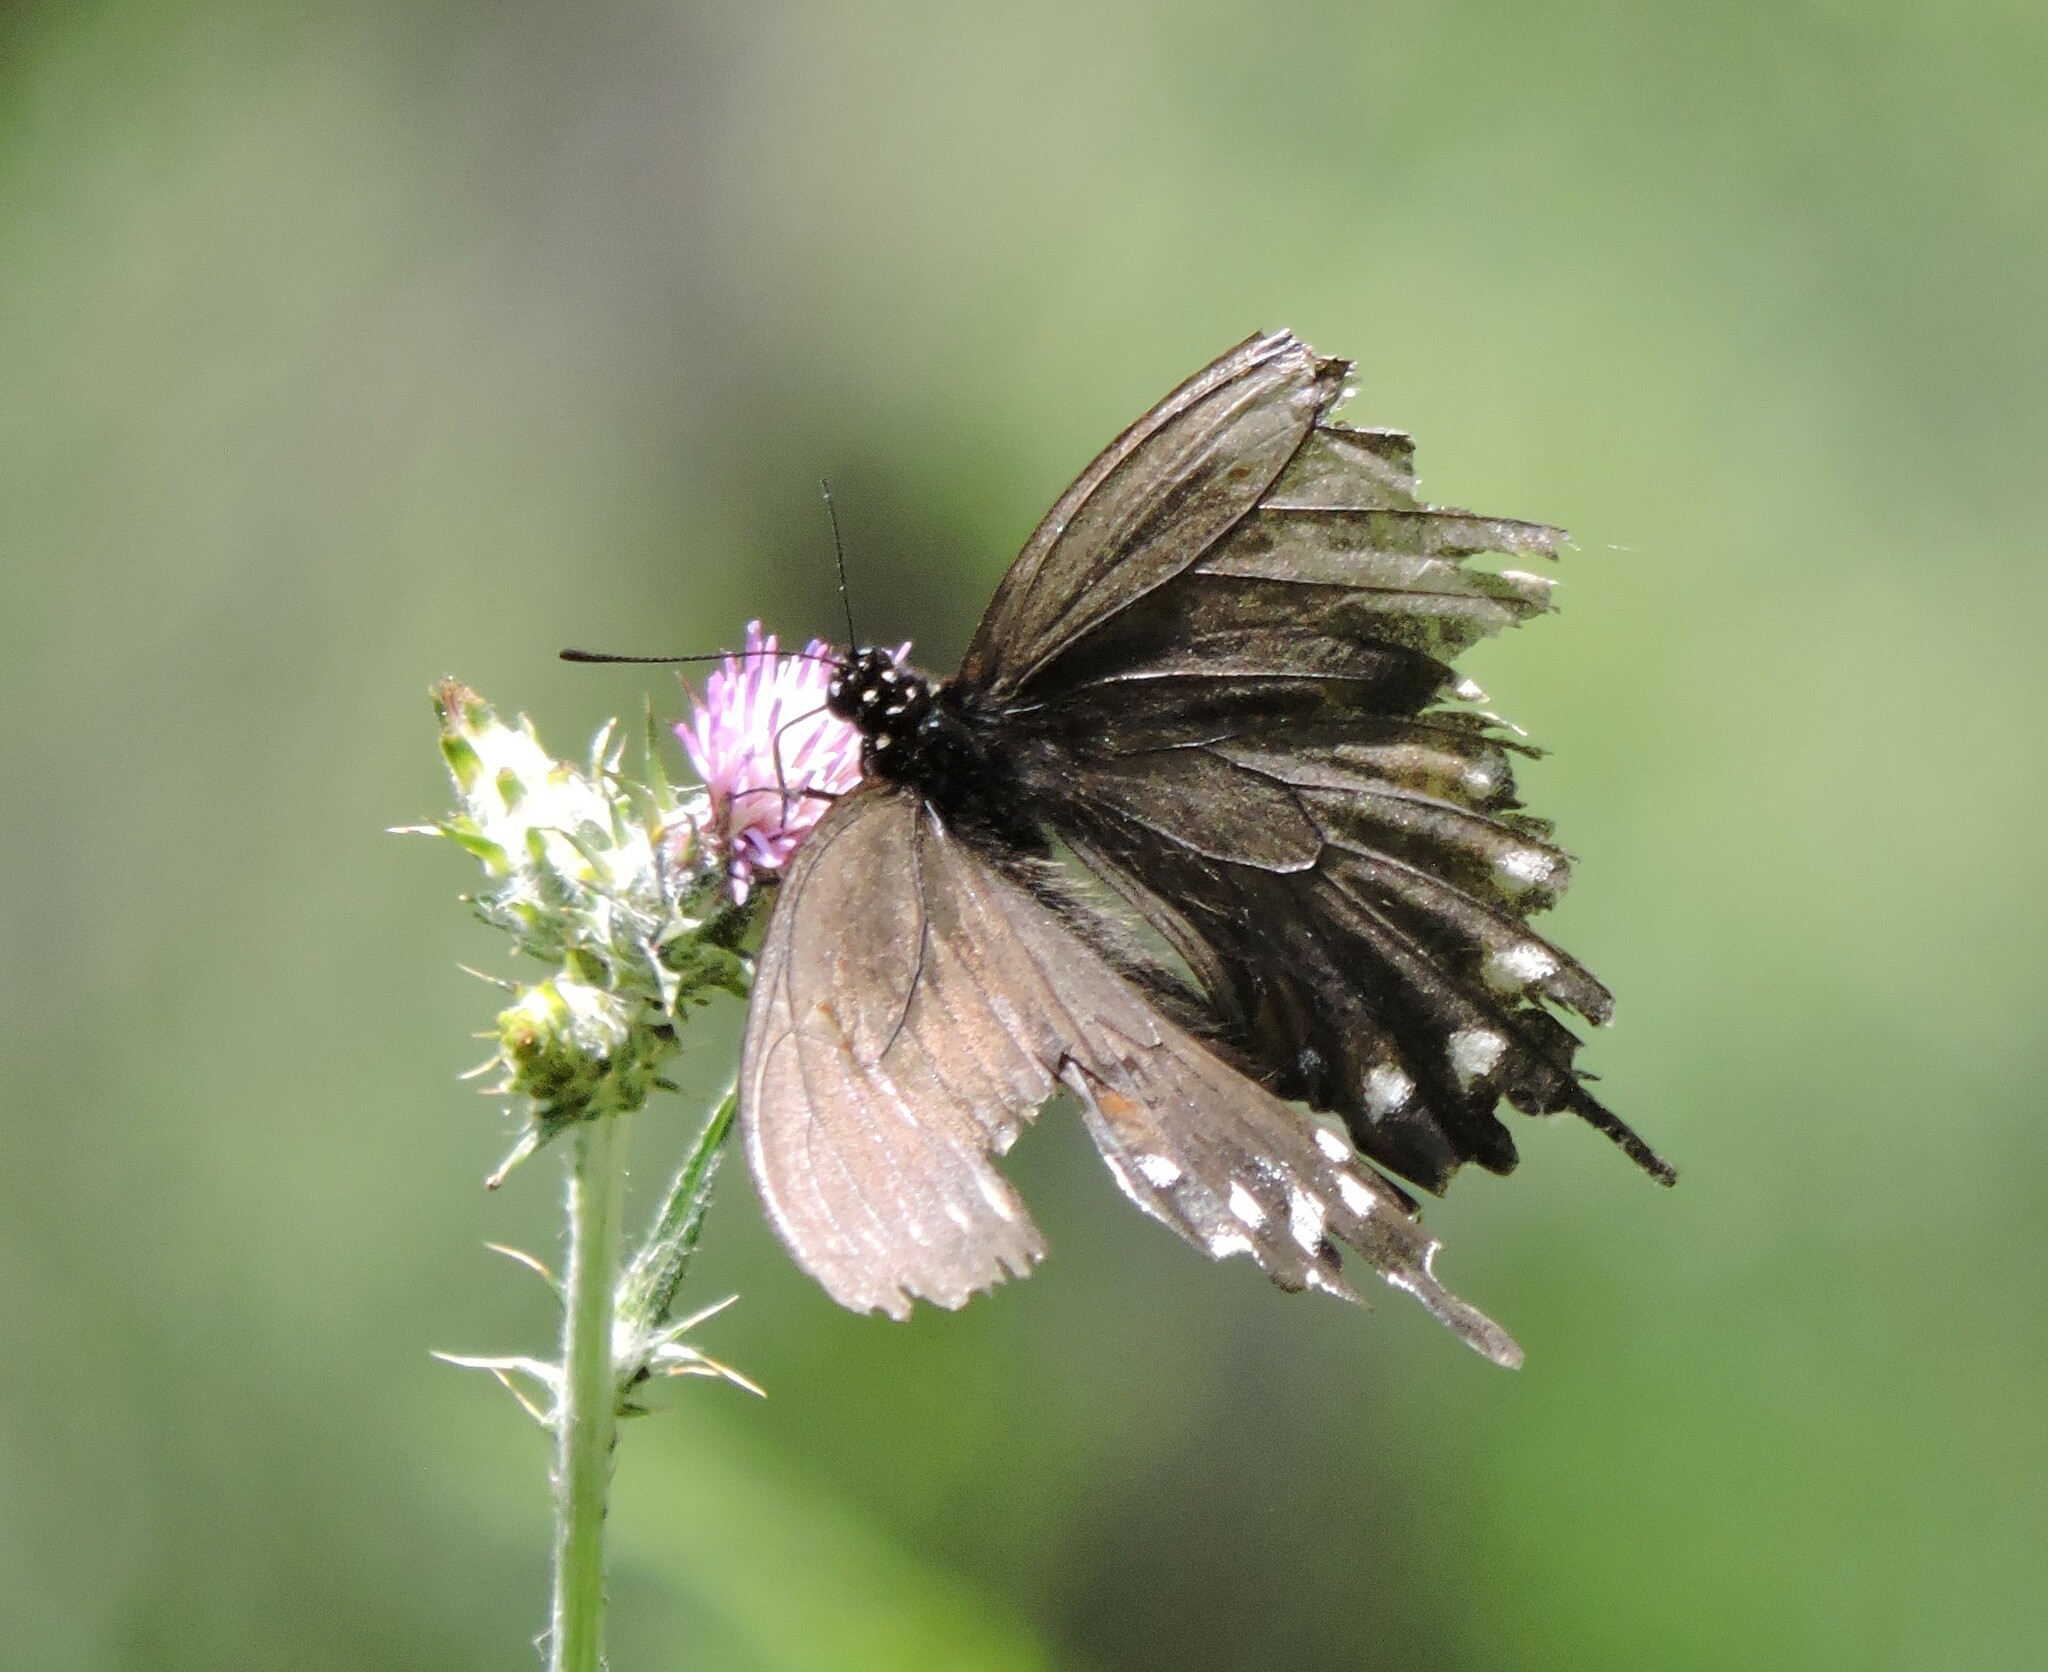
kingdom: Animalia
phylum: Arthropoda
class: Insecta
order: Lepidoptera
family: Papilionidae
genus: Battus
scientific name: Battus philenor
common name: Pipevine swallowtail
